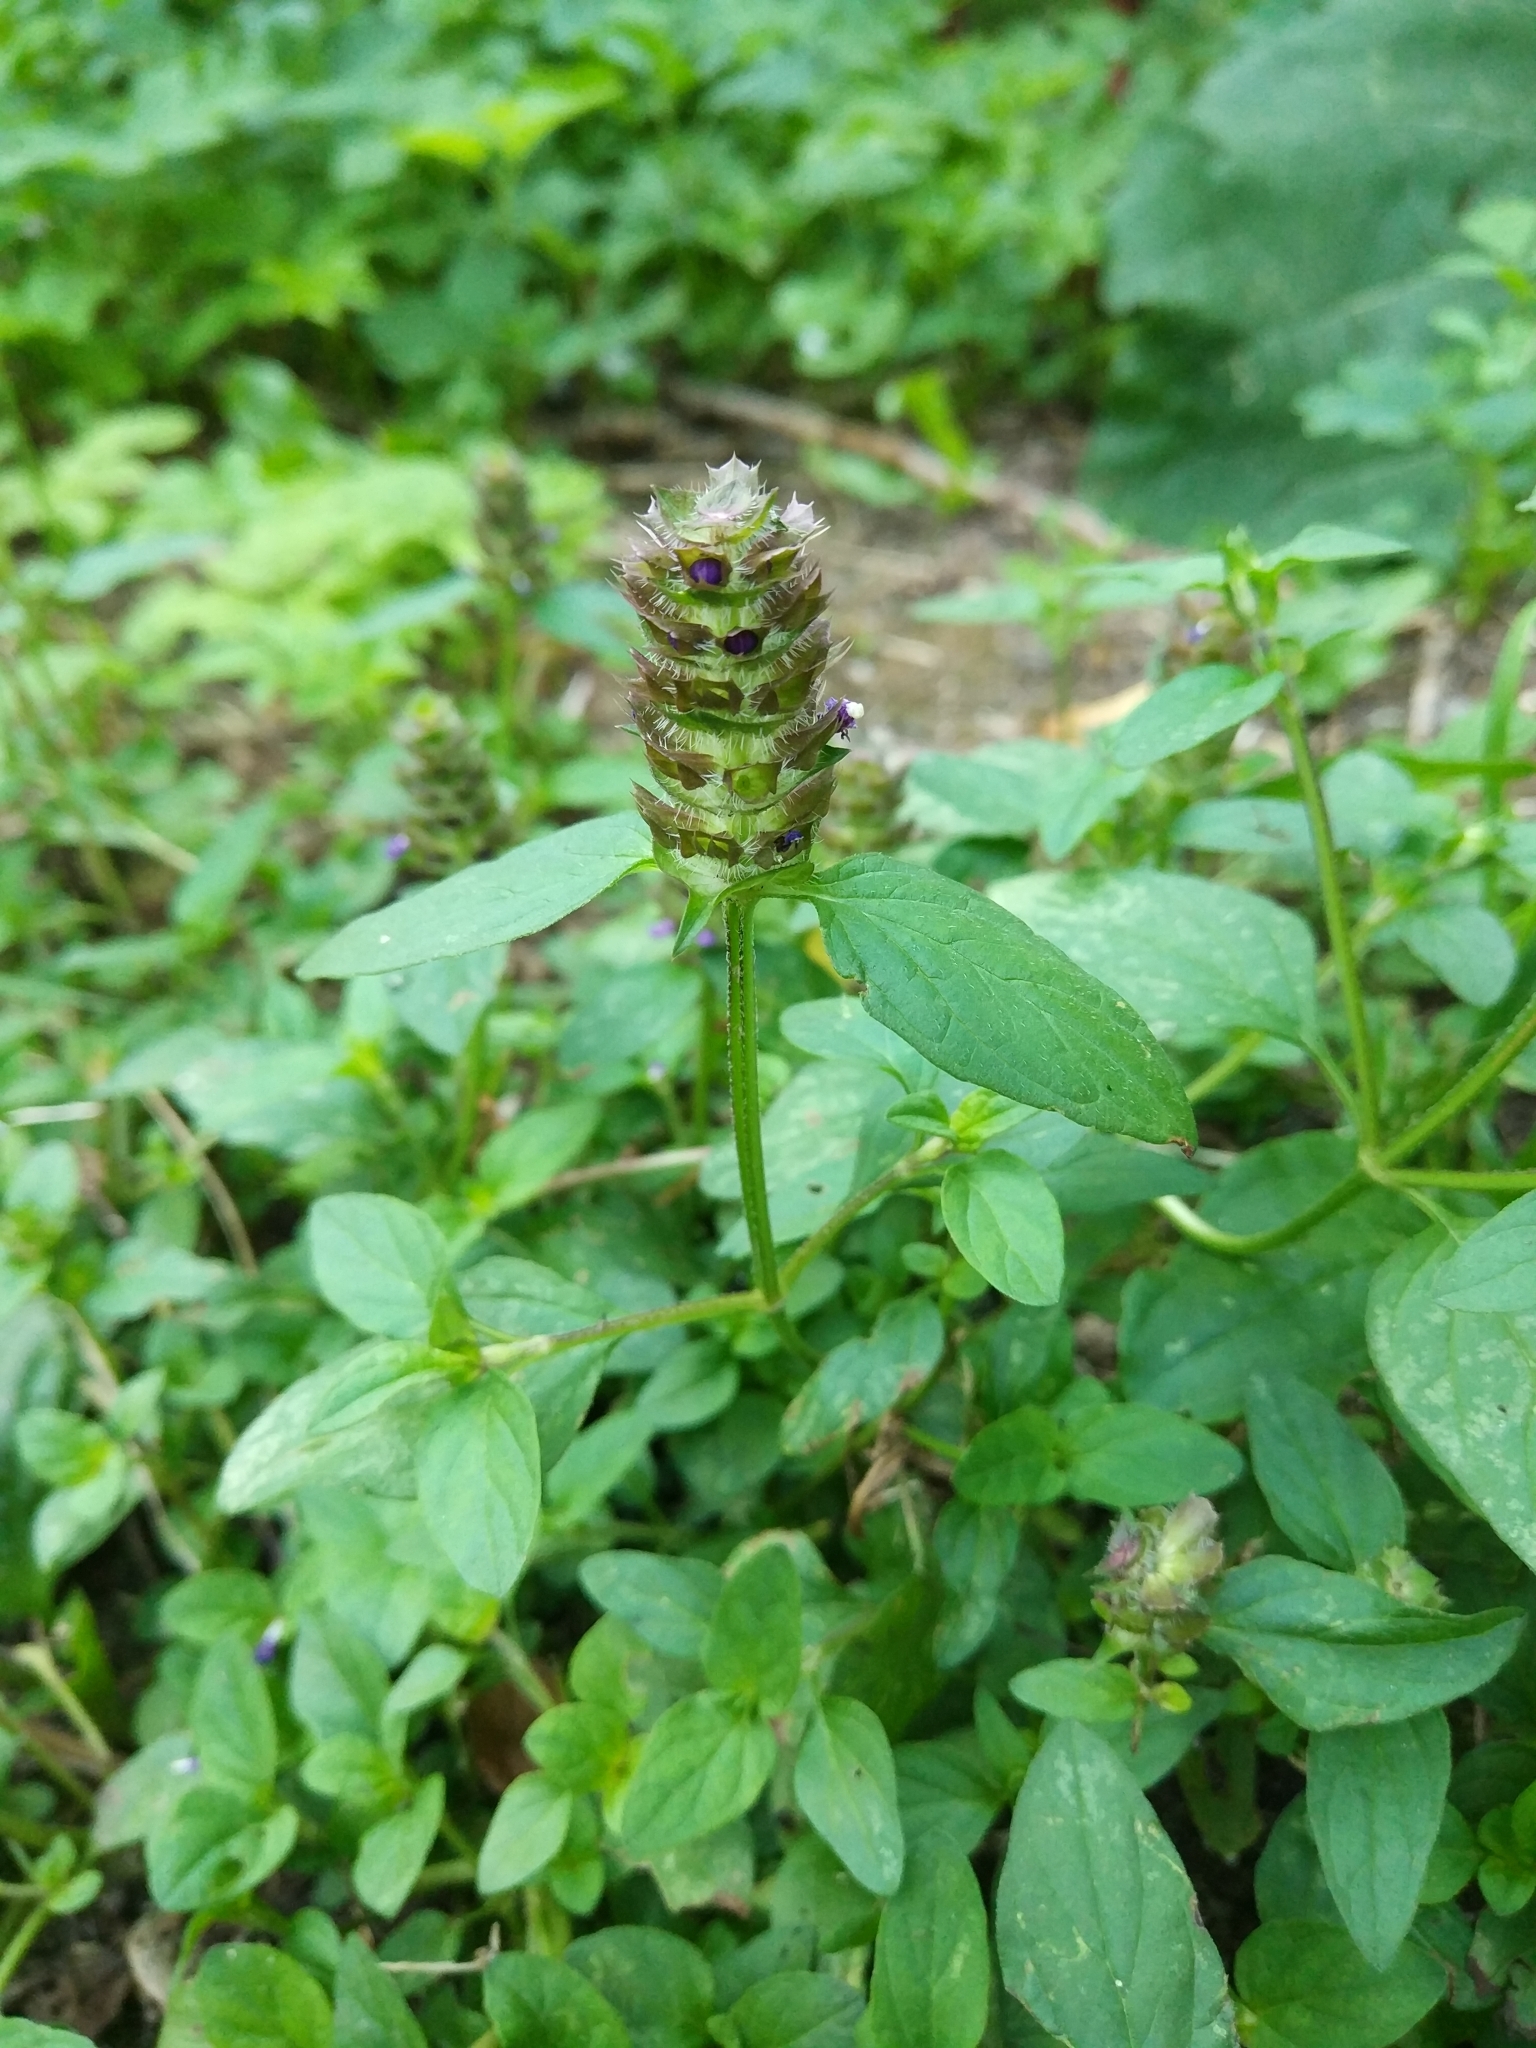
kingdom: Plantae
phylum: Tracheophyta
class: Magnoliopsida
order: Lamiales
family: Lamiaceae
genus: Prunella
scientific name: Prunella vulgaris
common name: Heal-all
